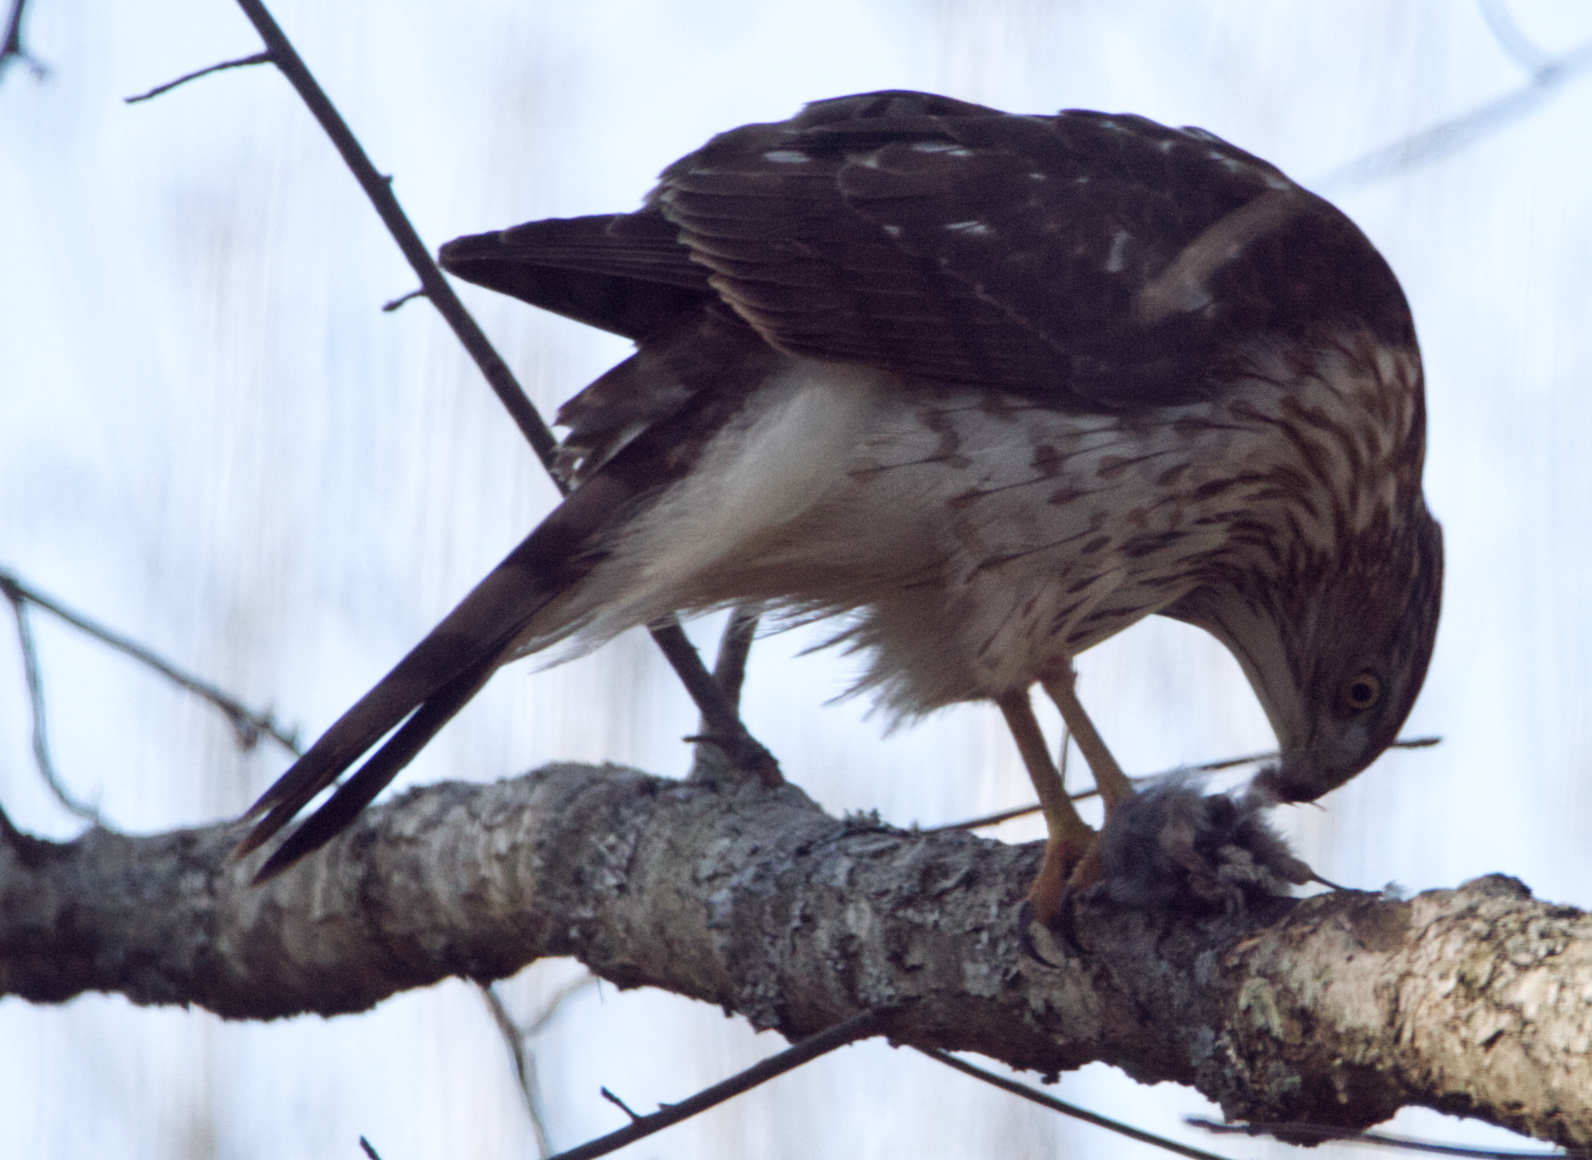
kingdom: Animalia
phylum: Chordata
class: Aves
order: Accipitriformes
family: Accipitridae
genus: Accipiter
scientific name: Accipiter cooperii
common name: Cooper's hawk
